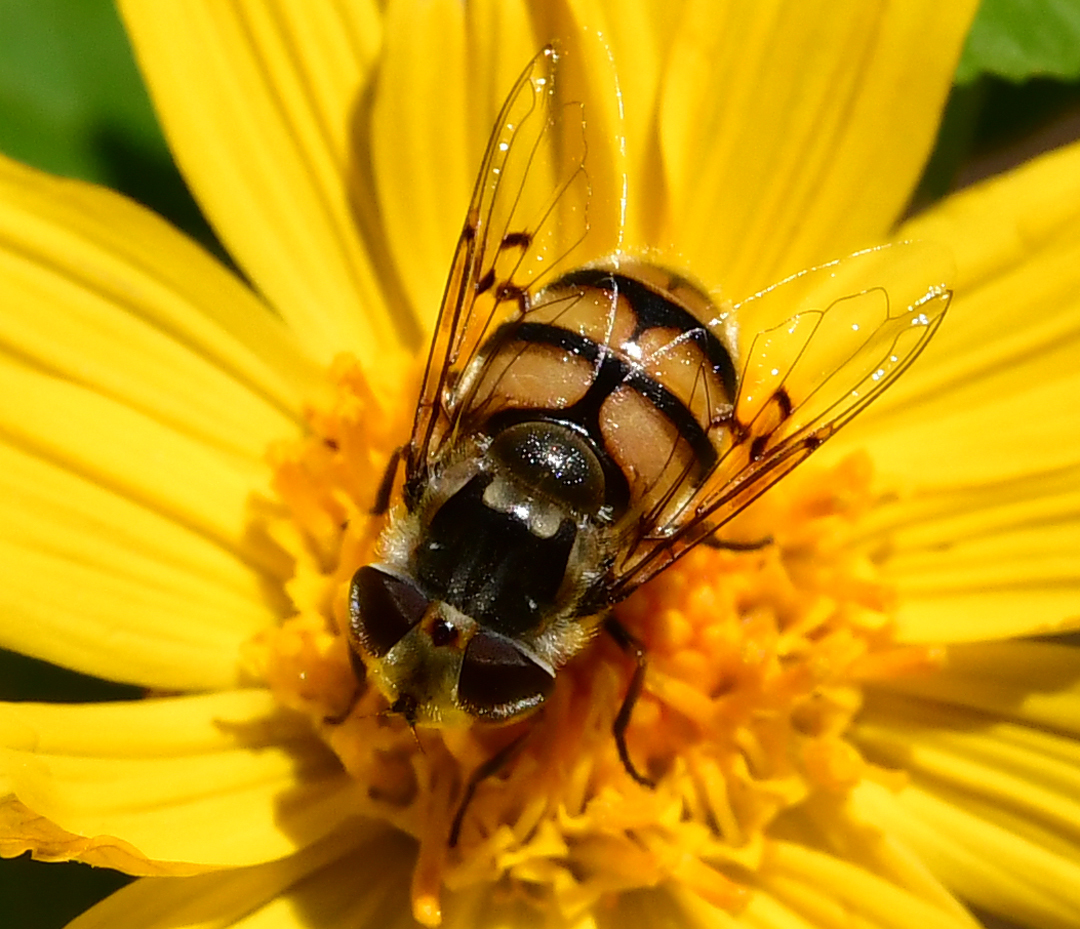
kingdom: Animalia
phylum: Arthropoda
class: Insecta
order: Diptera
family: Syrphidae
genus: Copestylum
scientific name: Copestylum avidum
